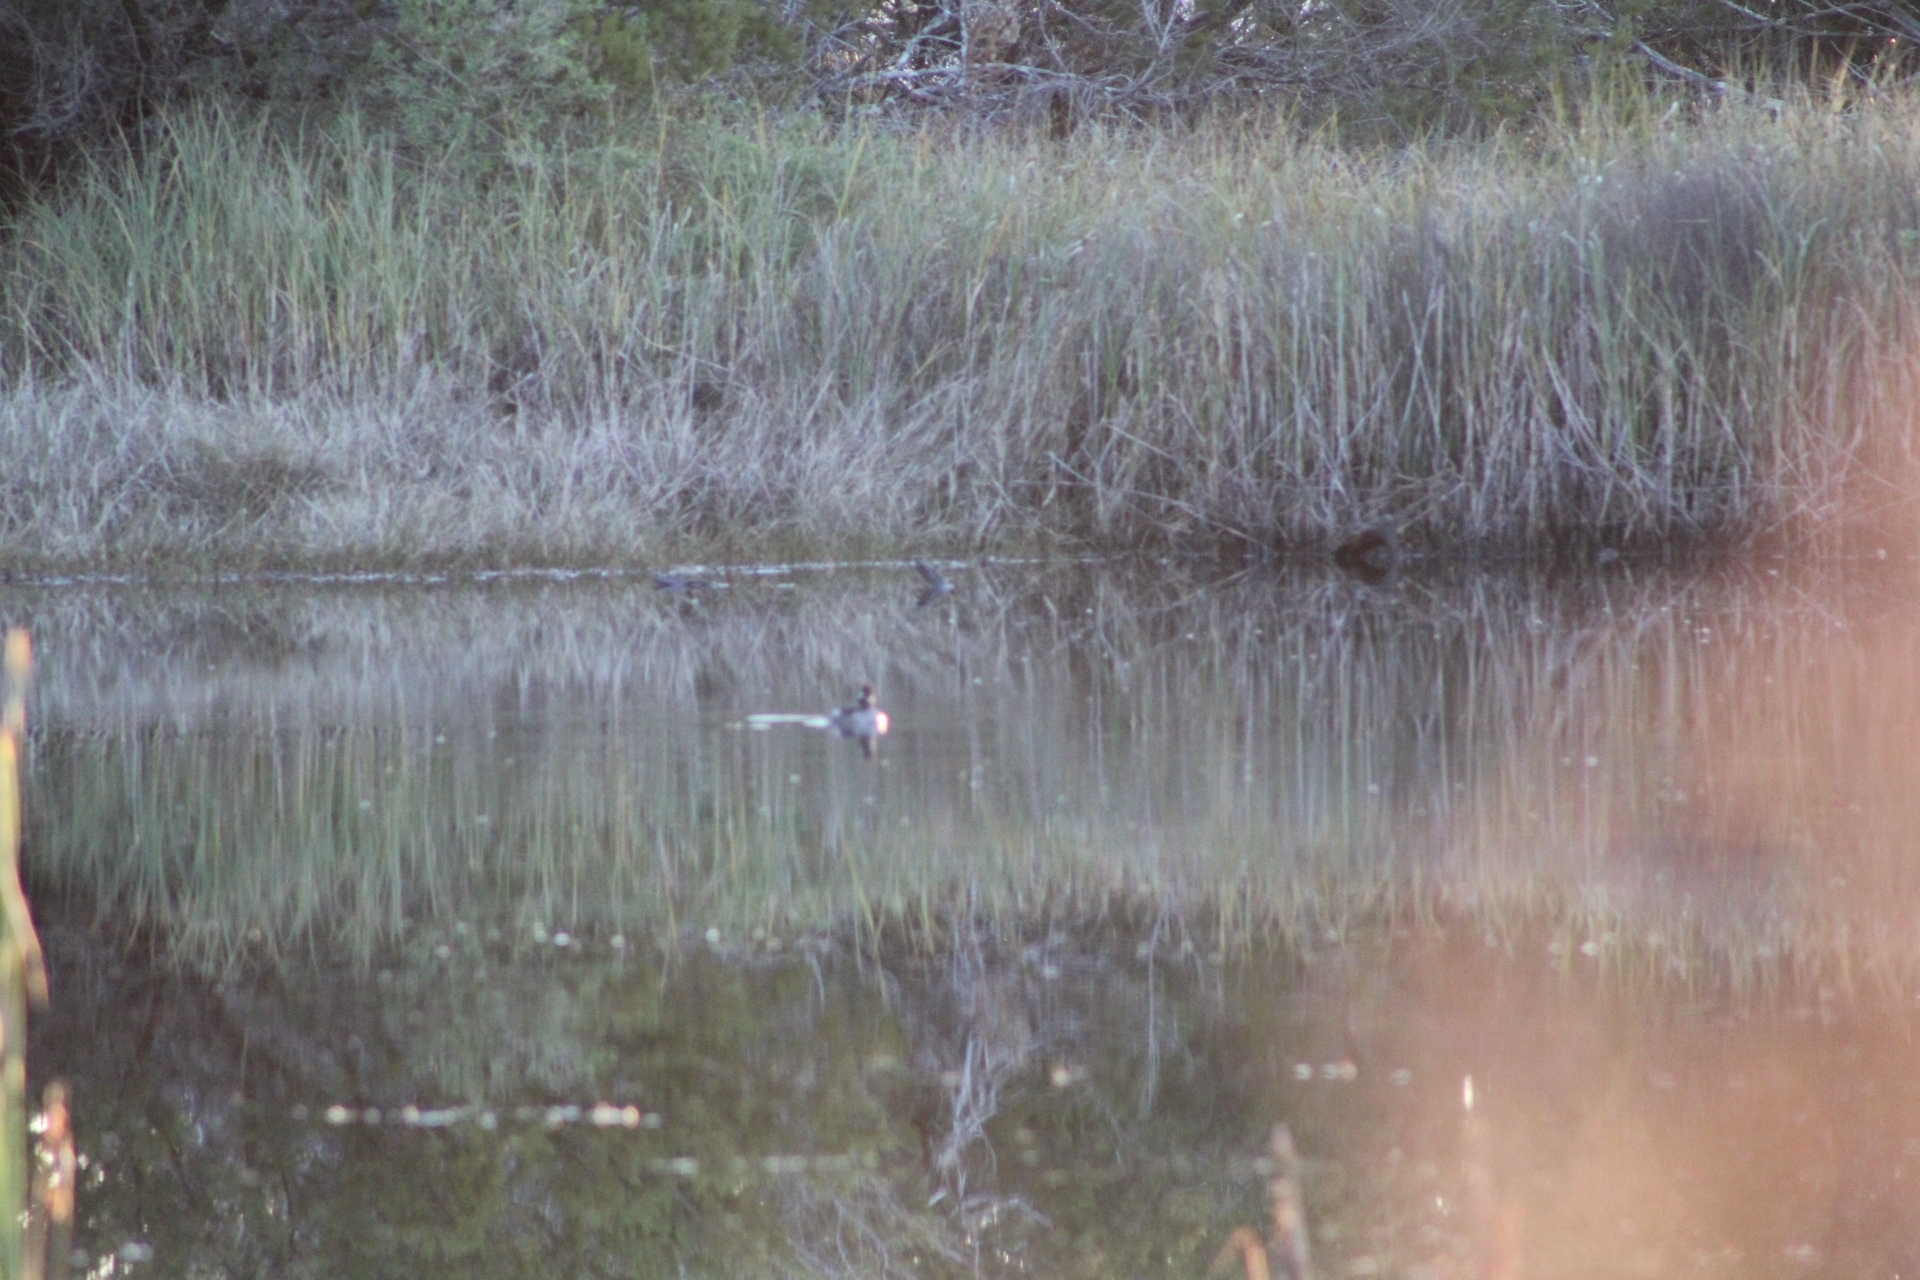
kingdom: Animalia
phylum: Chordata
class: Aves
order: Anseriformes
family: Anatidae
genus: Bucephala
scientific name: Bucephala albeola
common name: Bufflehead
